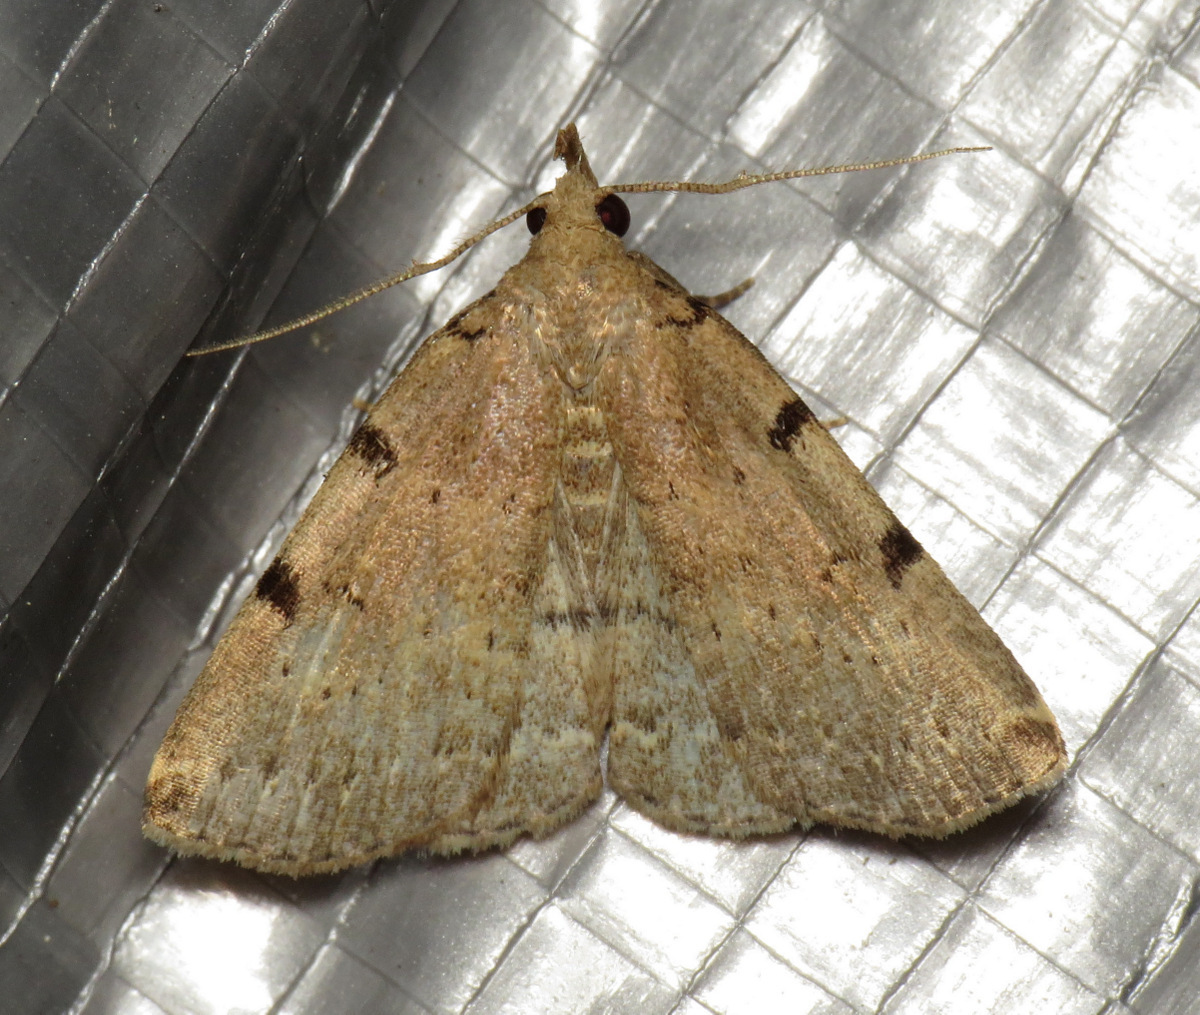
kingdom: Animalia
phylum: Arthropoda
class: Insecta
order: Lepidoptera
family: Erebidae
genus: Zanclognatha
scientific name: Zanclognatha lituralis
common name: Lettered fan-foot
